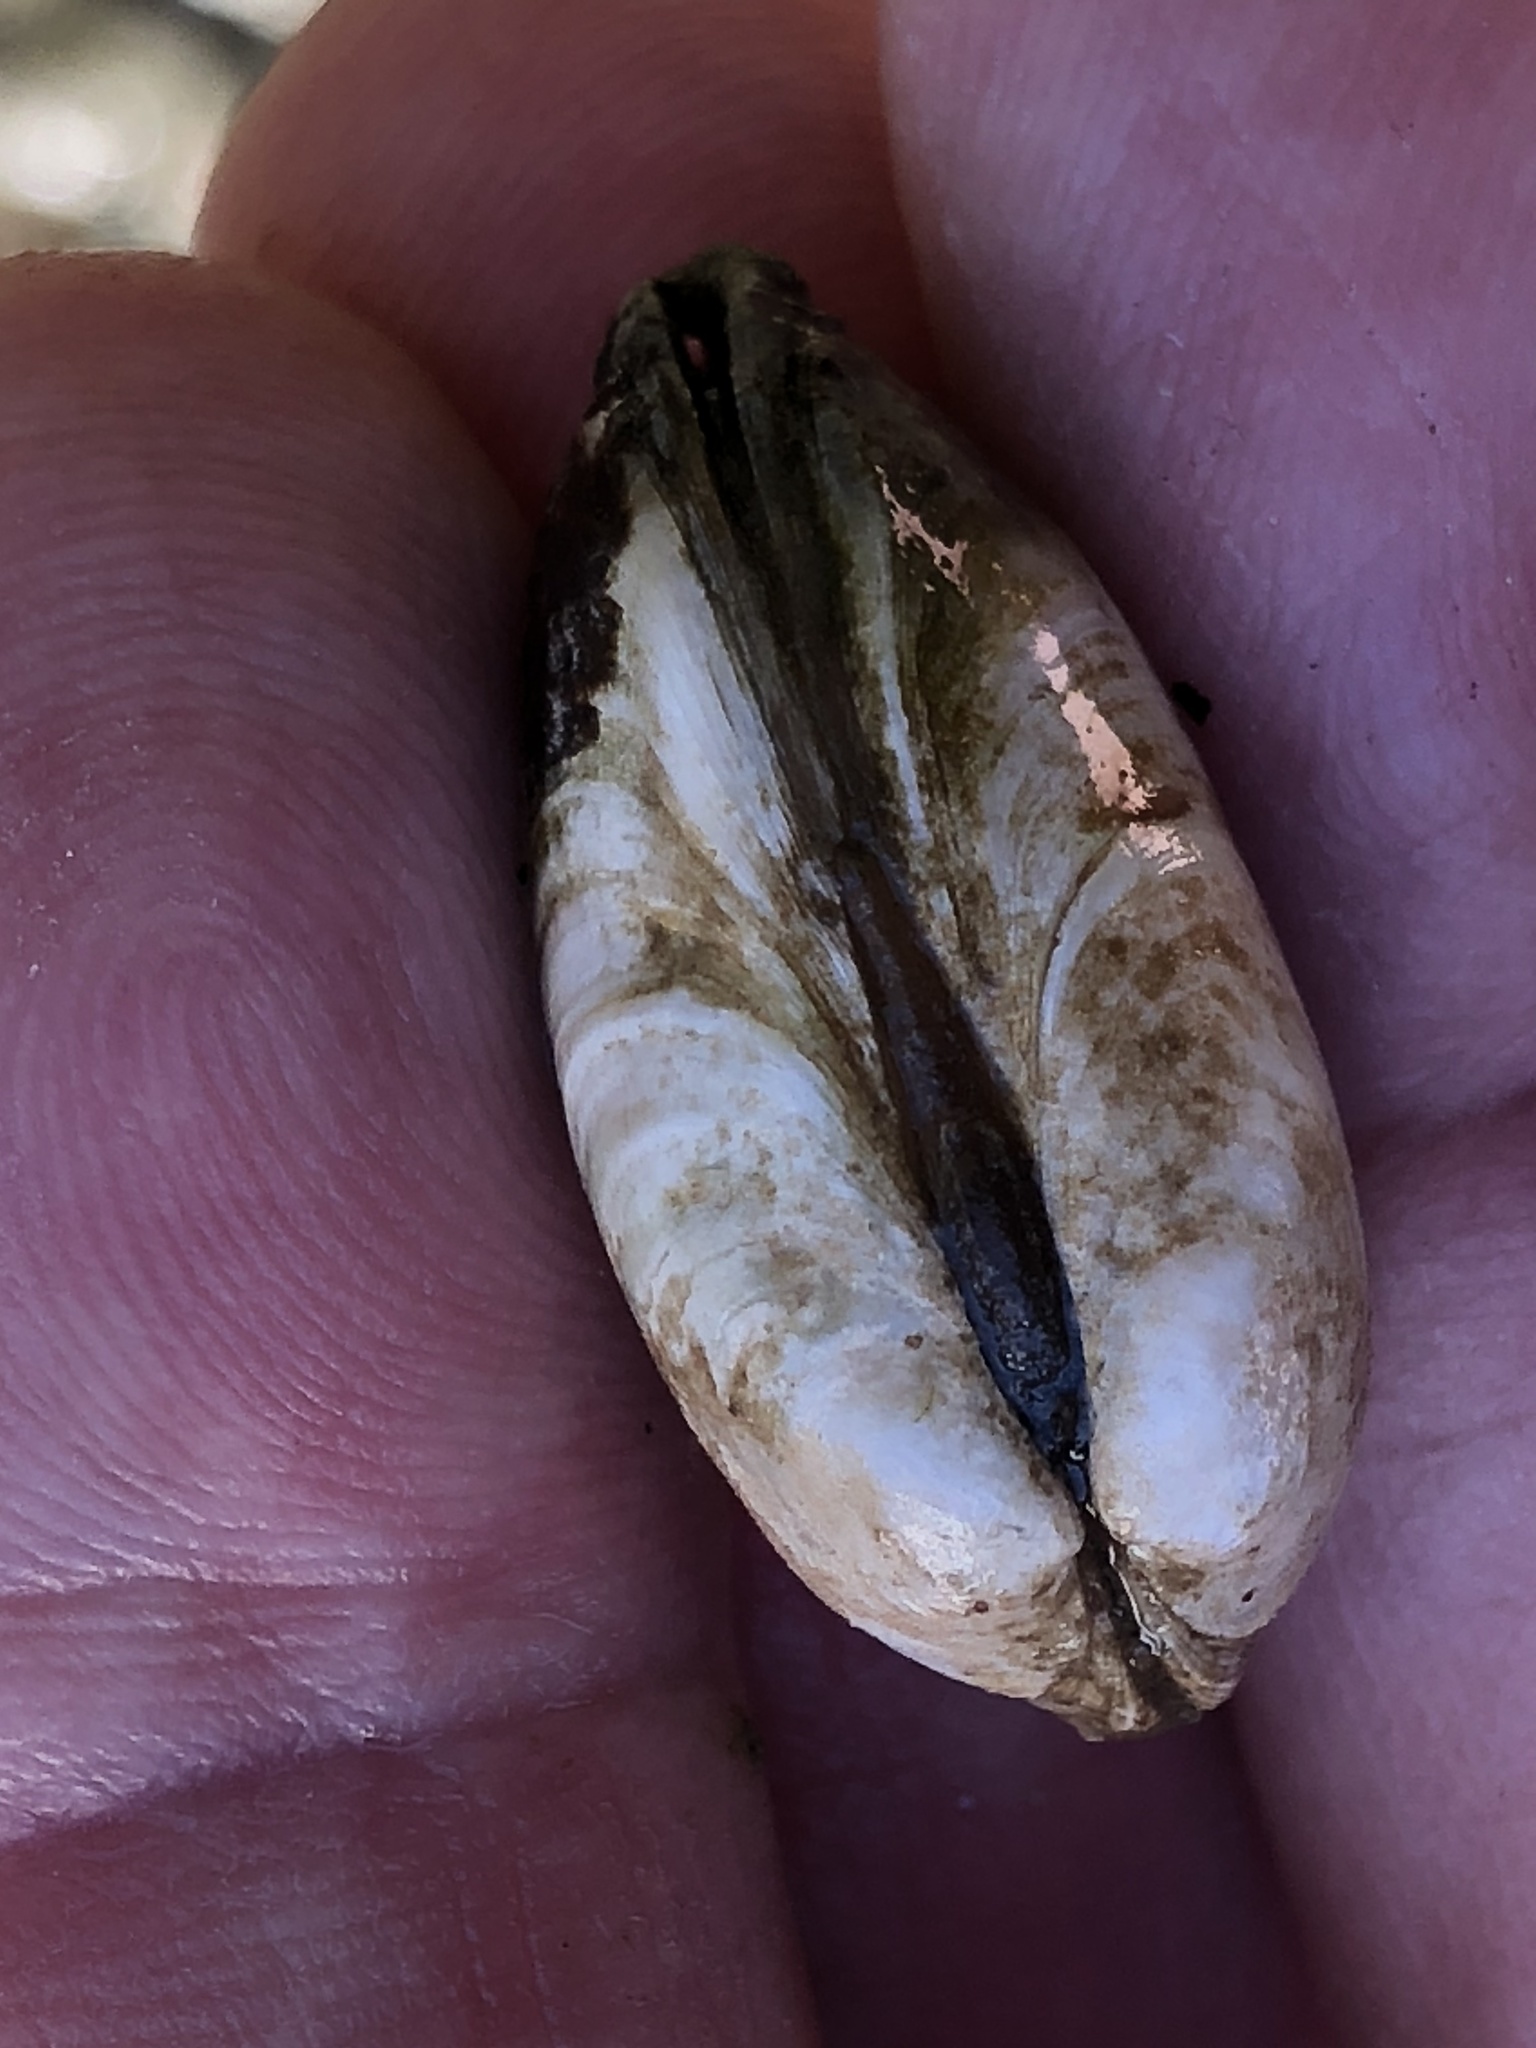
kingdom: Animalia
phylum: Mollusca
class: Bivalvia
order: Venerida
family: Veneridae
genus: Petricola
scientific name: Petricola carditoides
